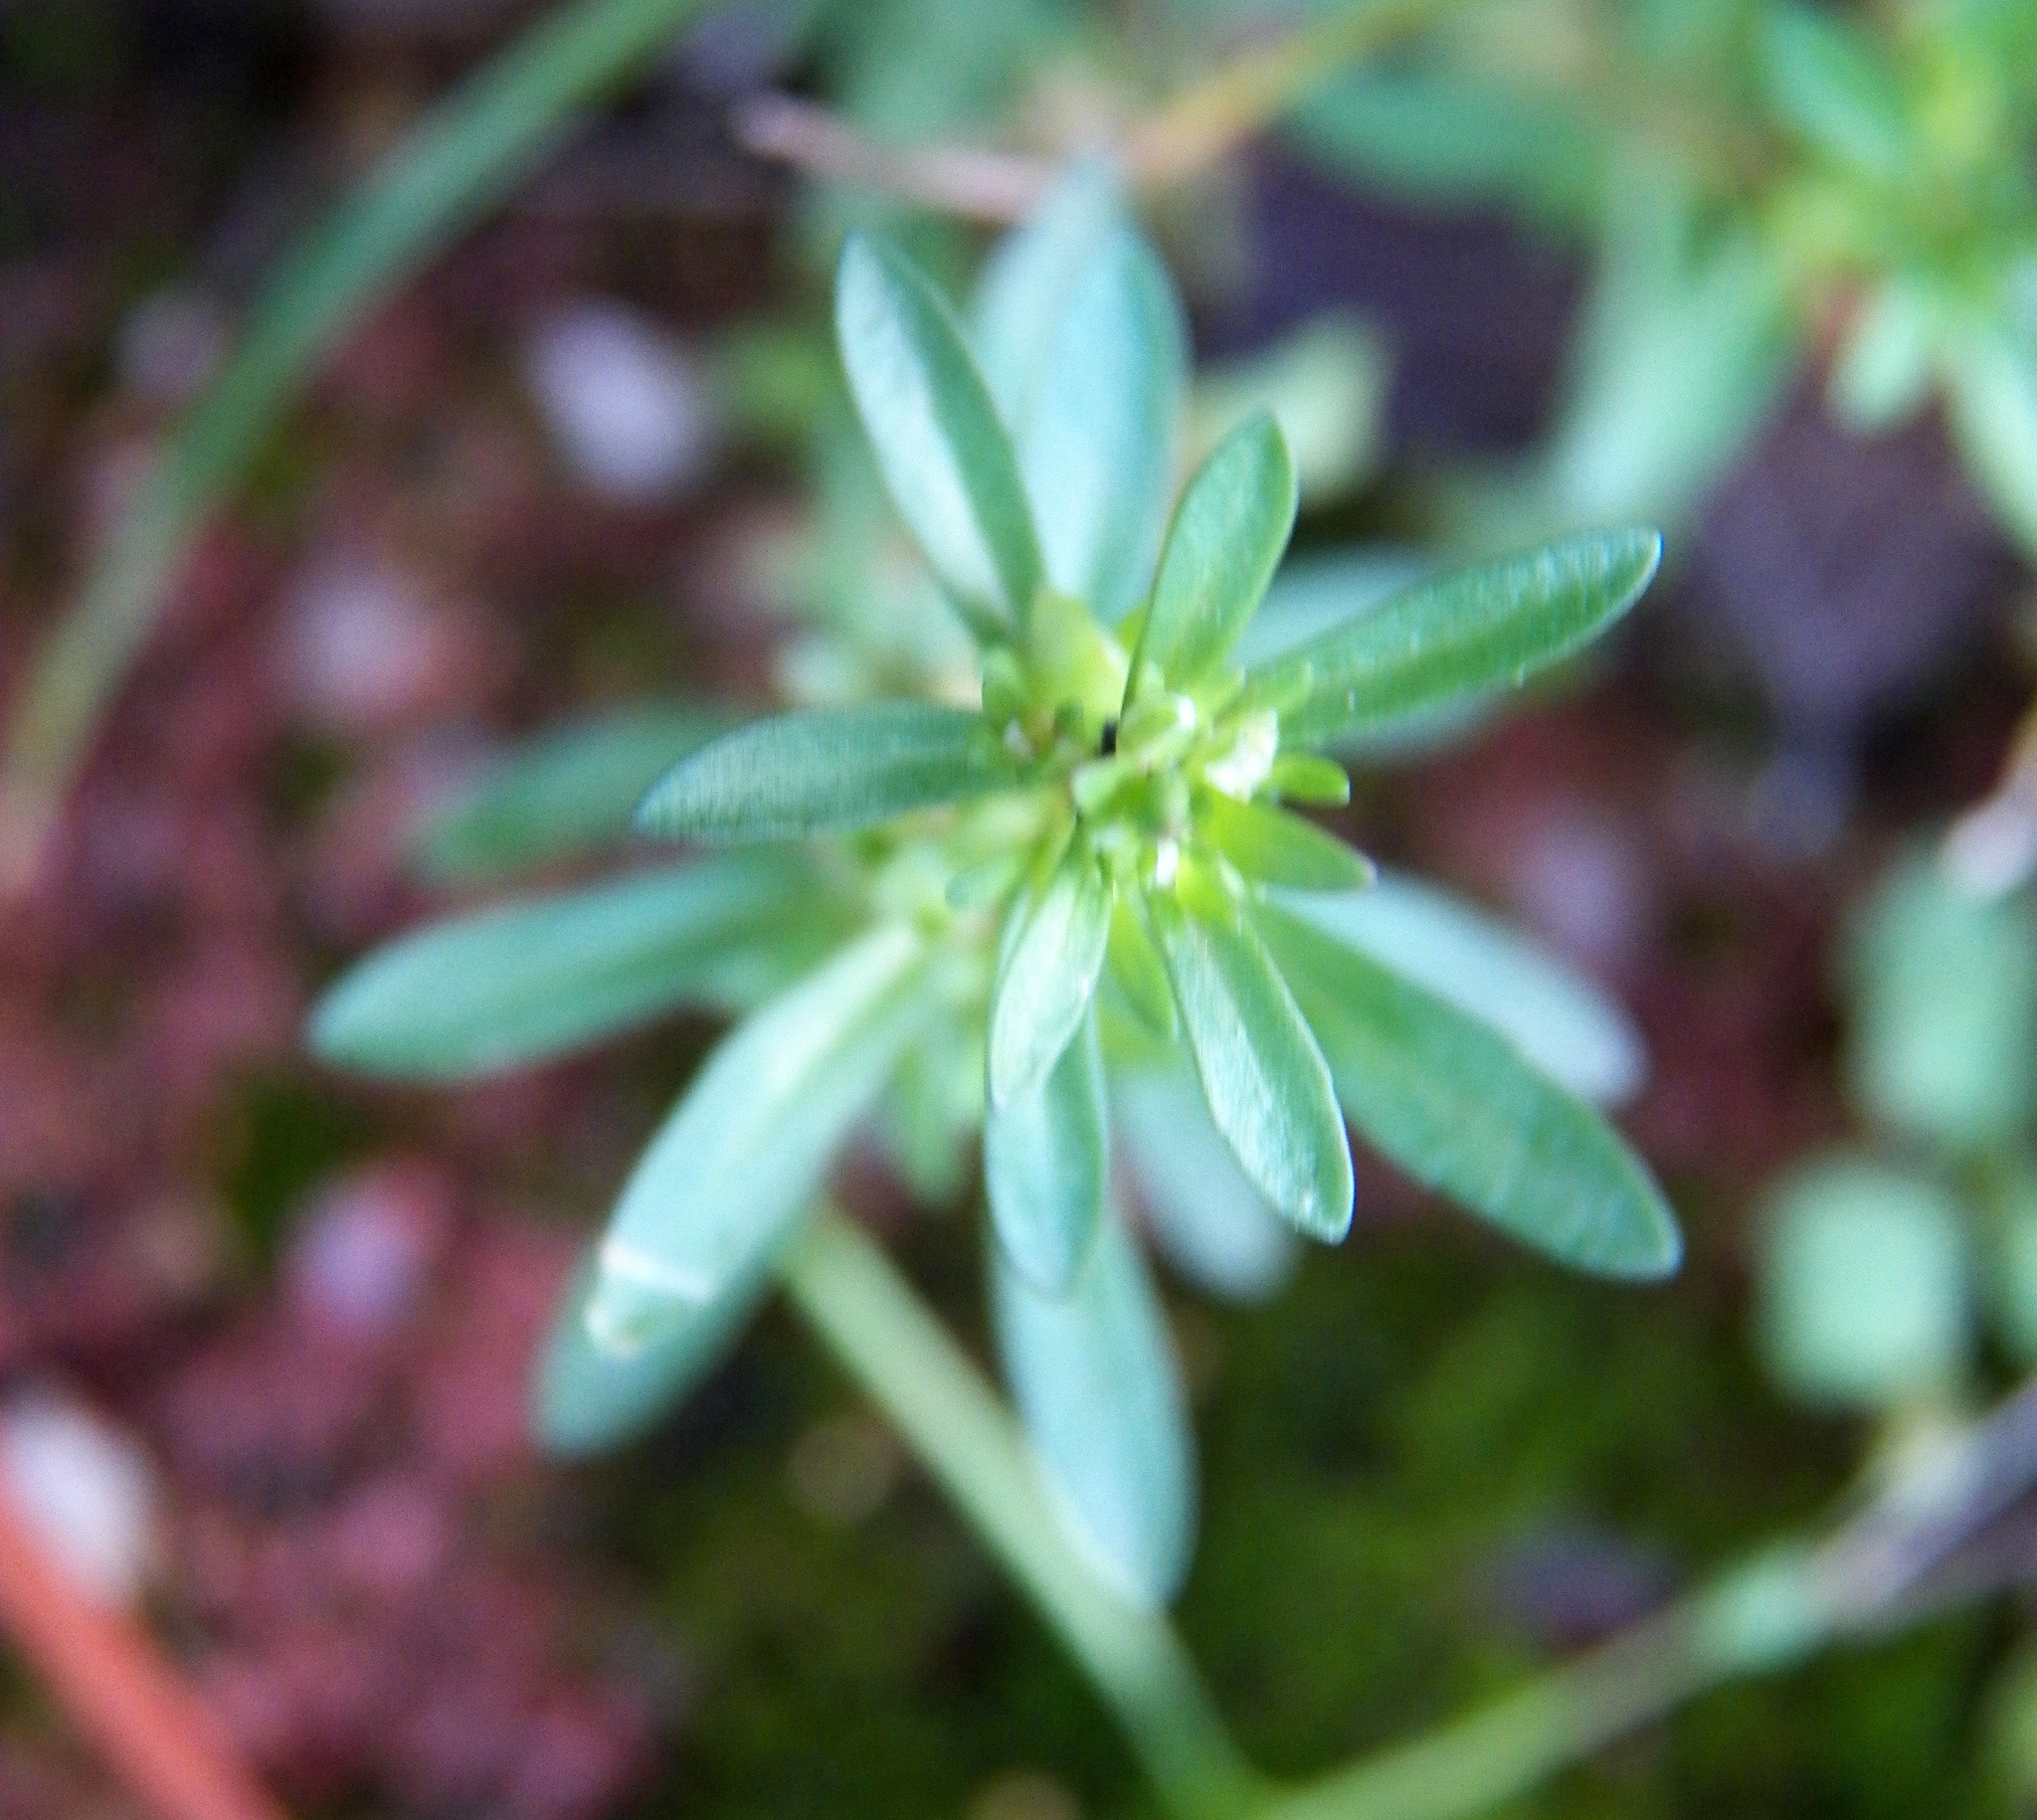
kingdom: Plantae
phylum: Tracheophyta
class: Magnoliopsida
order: Lamiales
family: Plantaginaceae
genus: Veronica
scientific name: Veronica peregrina
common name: Neckweed
